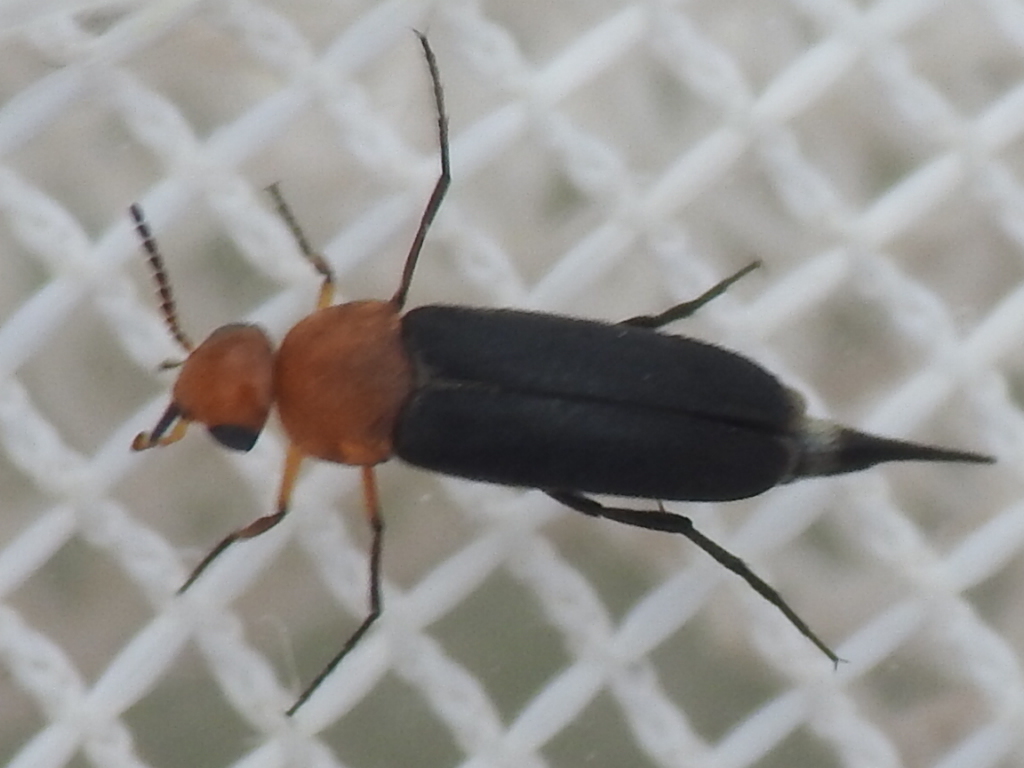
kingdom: Animalia
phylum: Arthropoda
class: Insecta
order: Coleoptera
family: Mordellidae
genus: Mordellistena
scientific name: Mordellistena cervicalis
